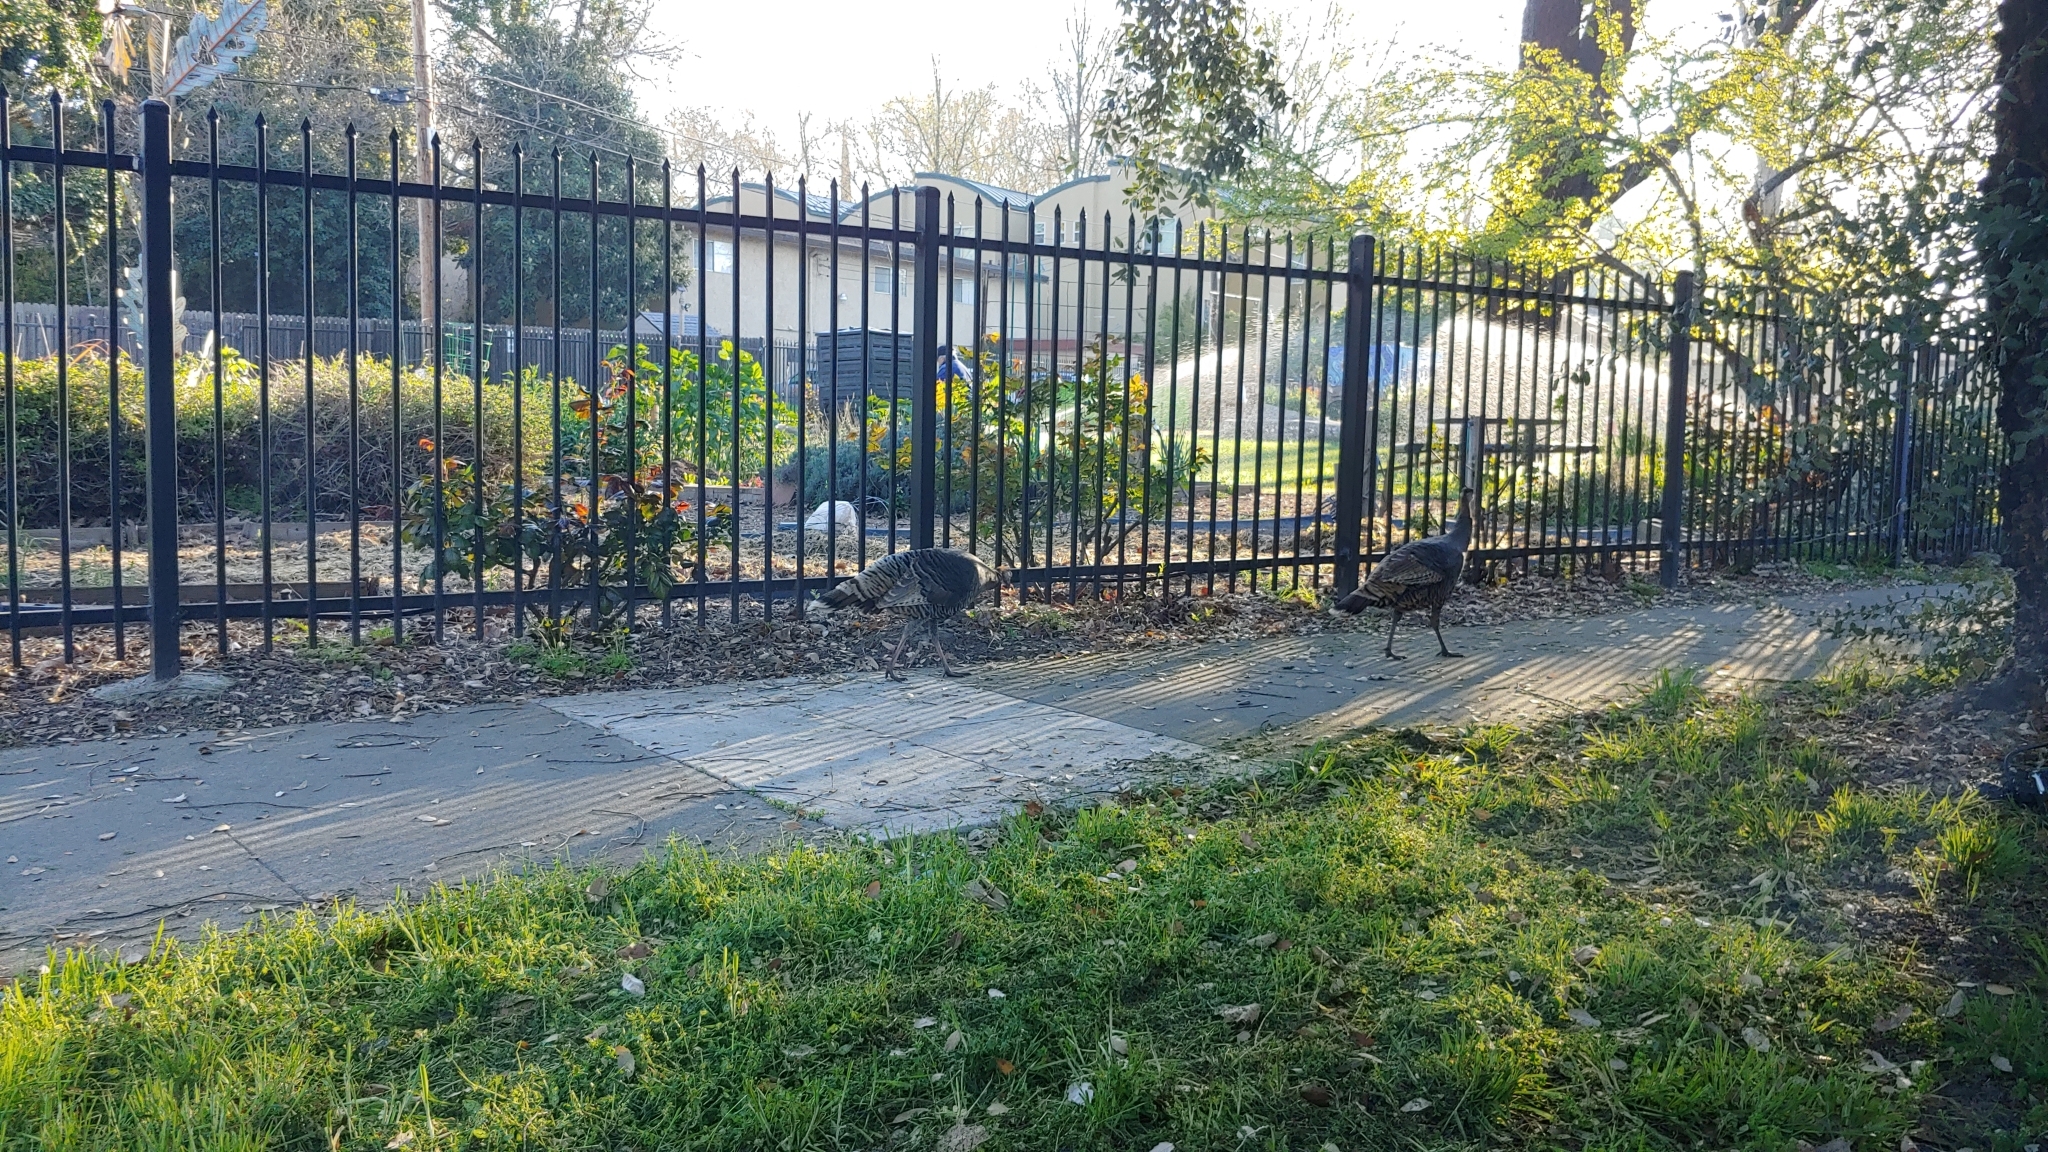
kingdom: Animalia
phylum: Chordata
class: Aves
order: Galliformes
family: Phasianidae
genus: Meleagris
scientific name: Meleagris gallopavo
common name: Wild turkey
